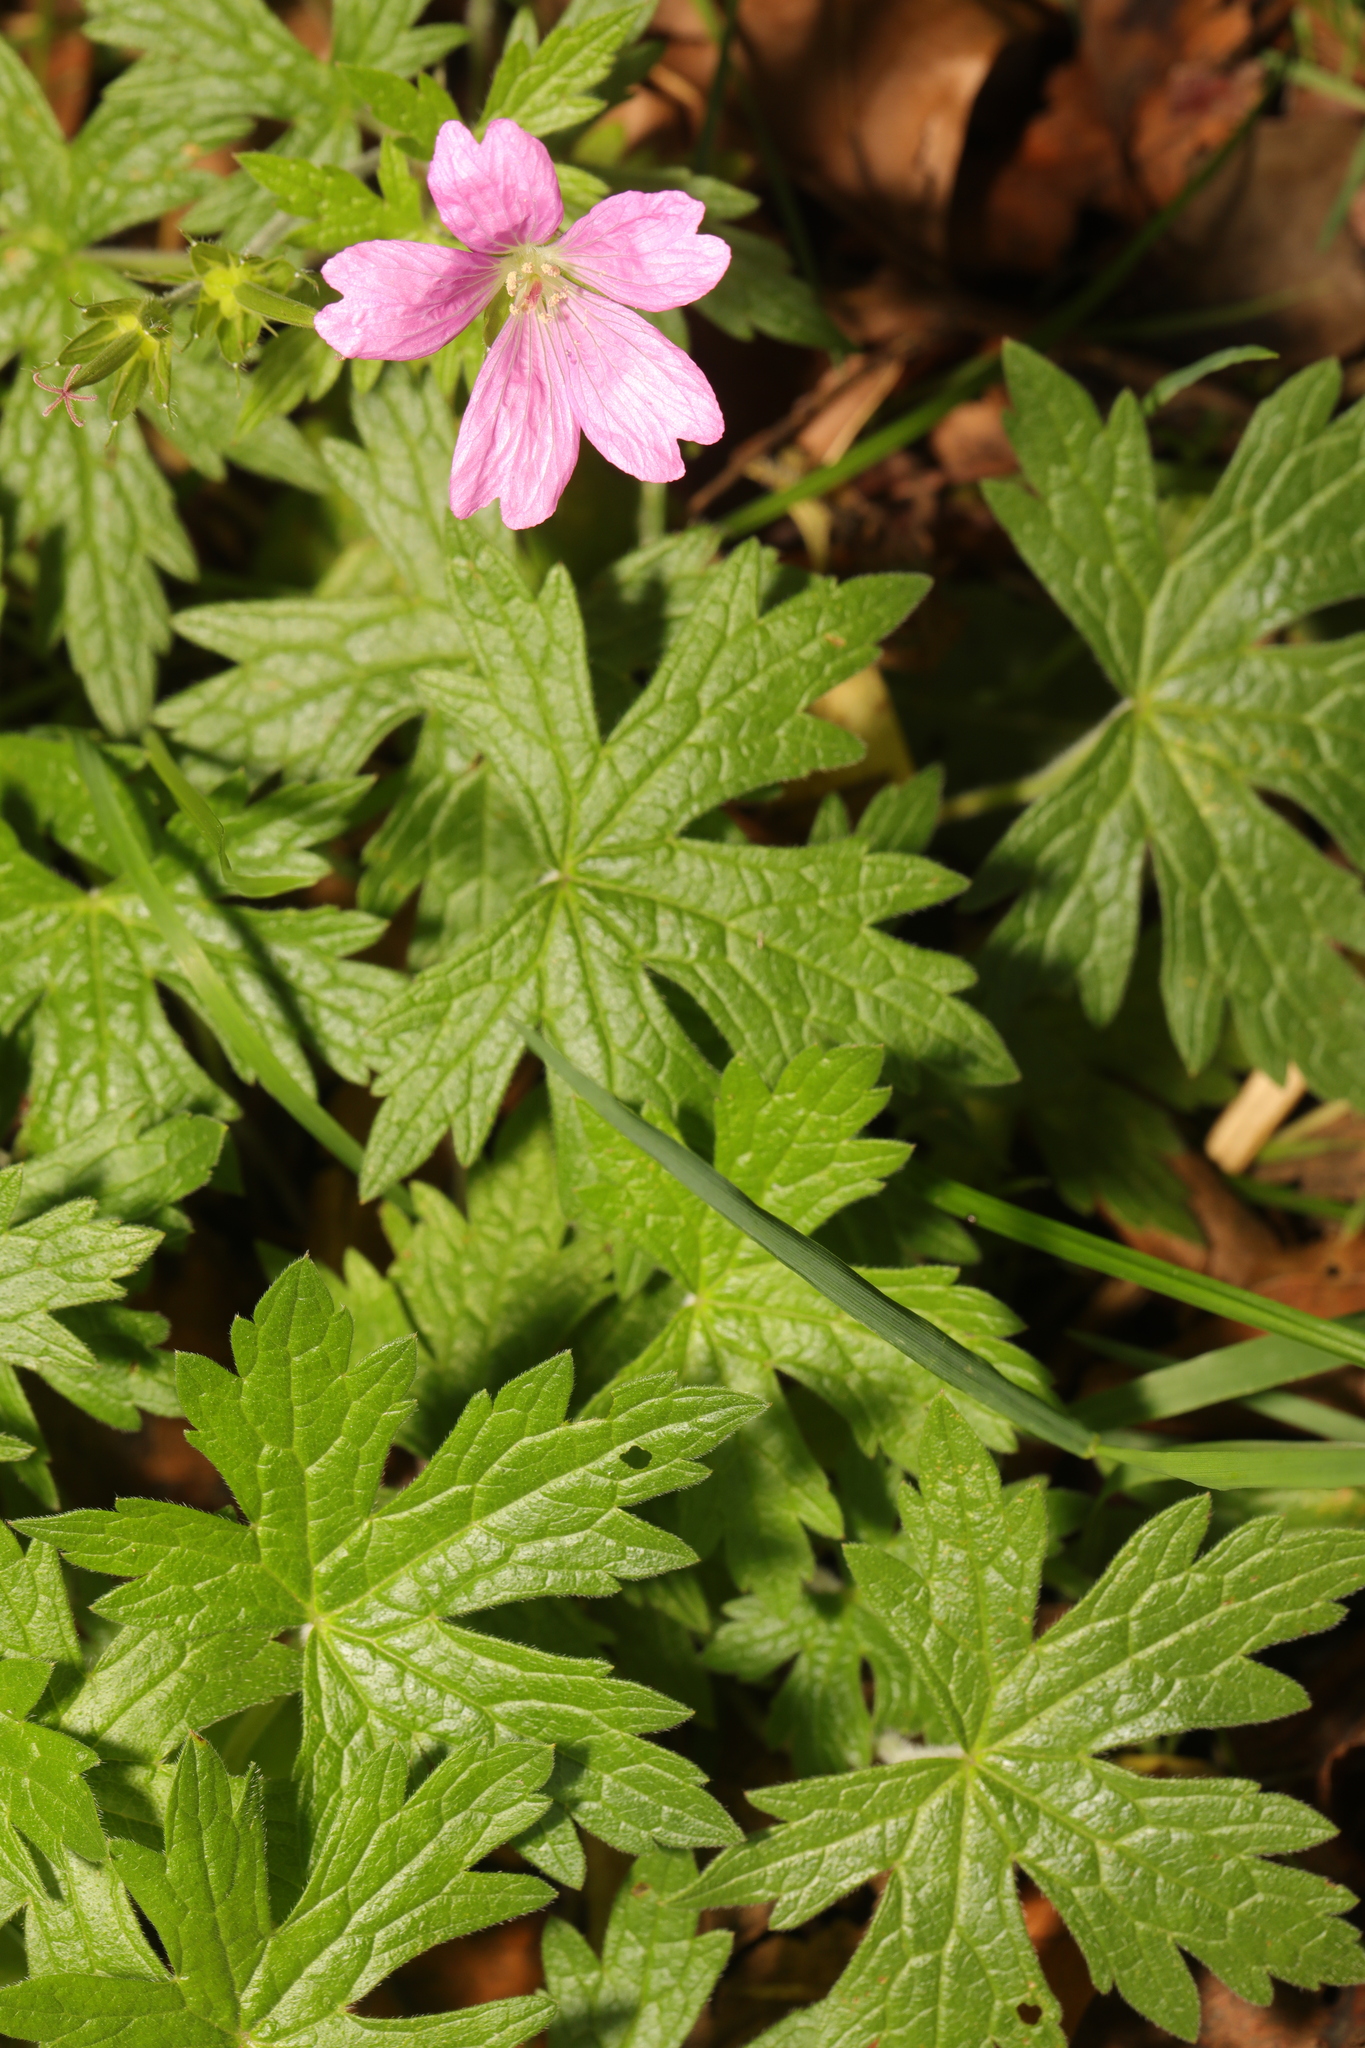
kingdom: Plantae
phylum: Tracheophyta
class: Magnoliopsida
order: Geraniales
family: Geraniaceae
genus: Geranium
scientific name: Geranium oxonianum
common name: Druce's crane's-bill
